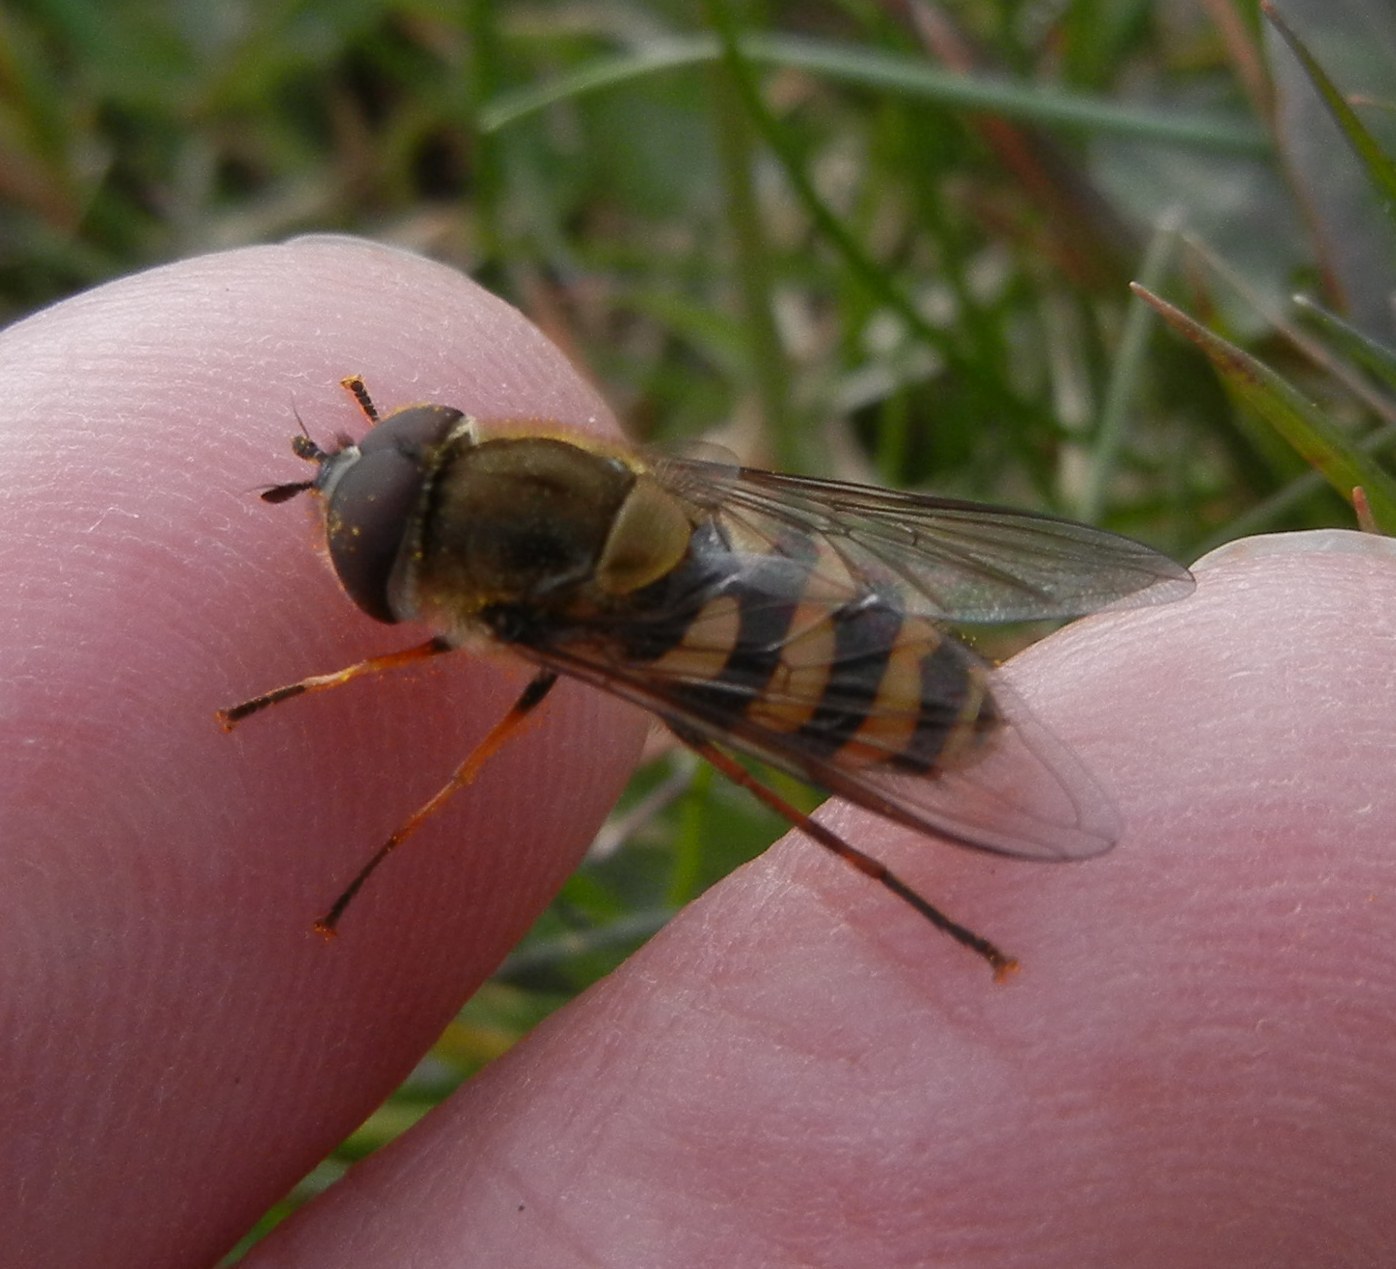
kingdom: Animalia
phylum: Arthropoda
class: Insecta
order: Diptera
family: Syrphidae
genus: Syrphus
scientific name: Syrphus torvus
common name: Hairy-eyed flower fly
